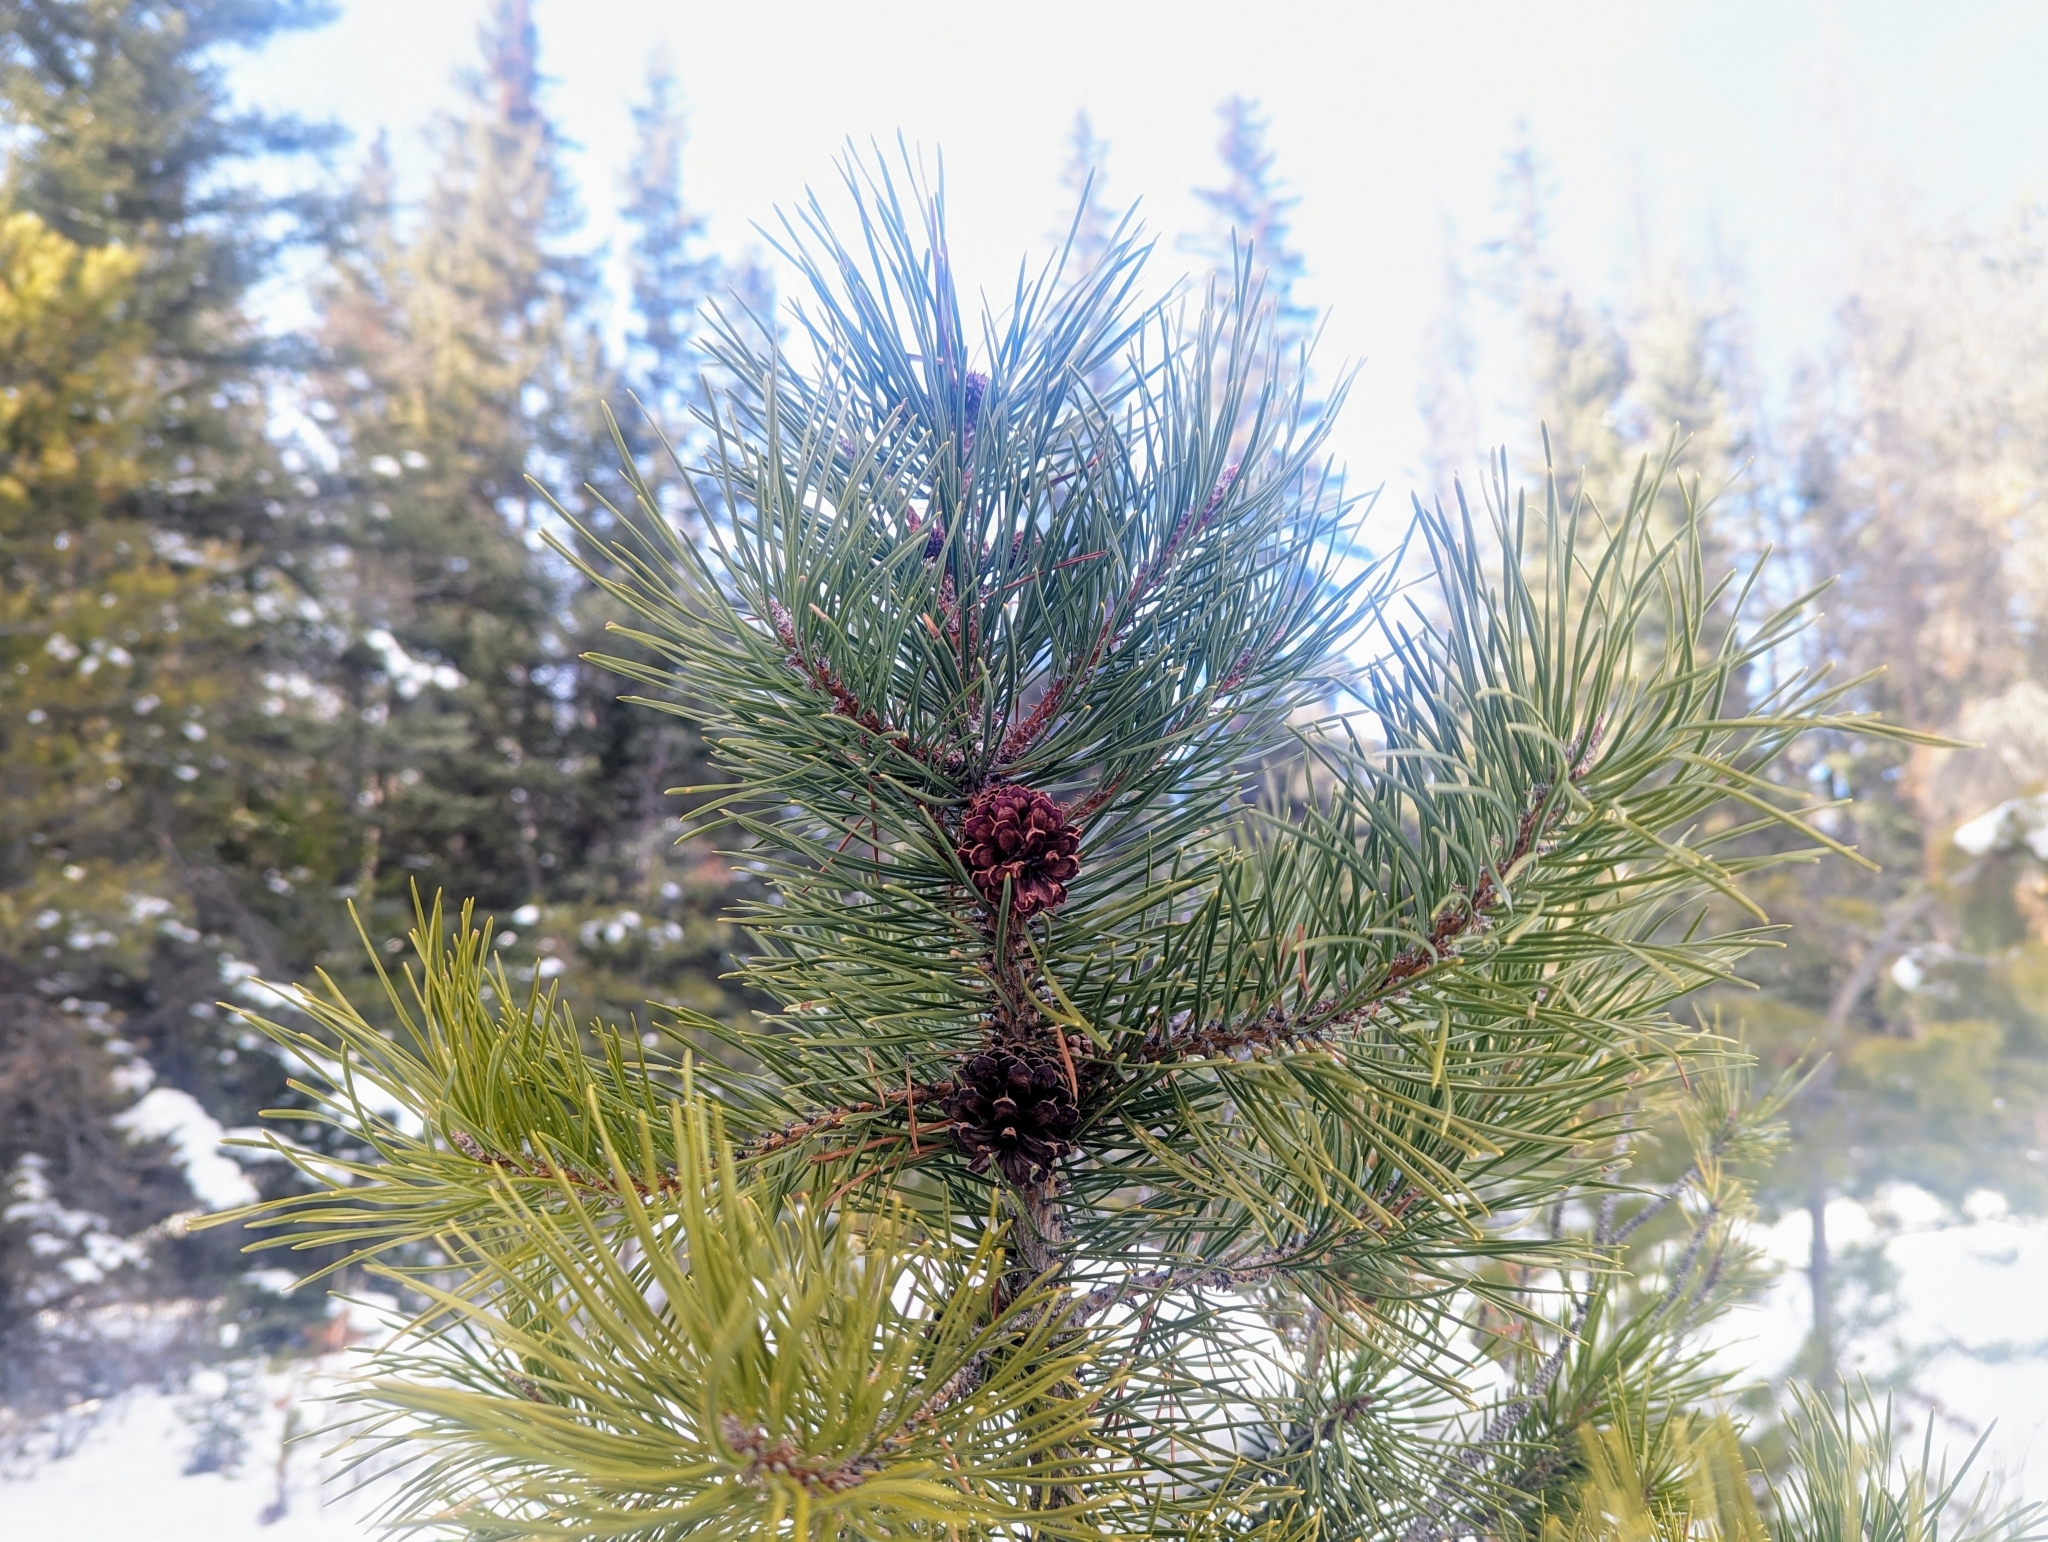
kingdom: Plantae
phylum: Tracheophyta
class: Pinopsida
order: Pinales
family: Pinaceae
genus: Pinus
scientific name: Pinus contorta
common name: Lodgepole pine
